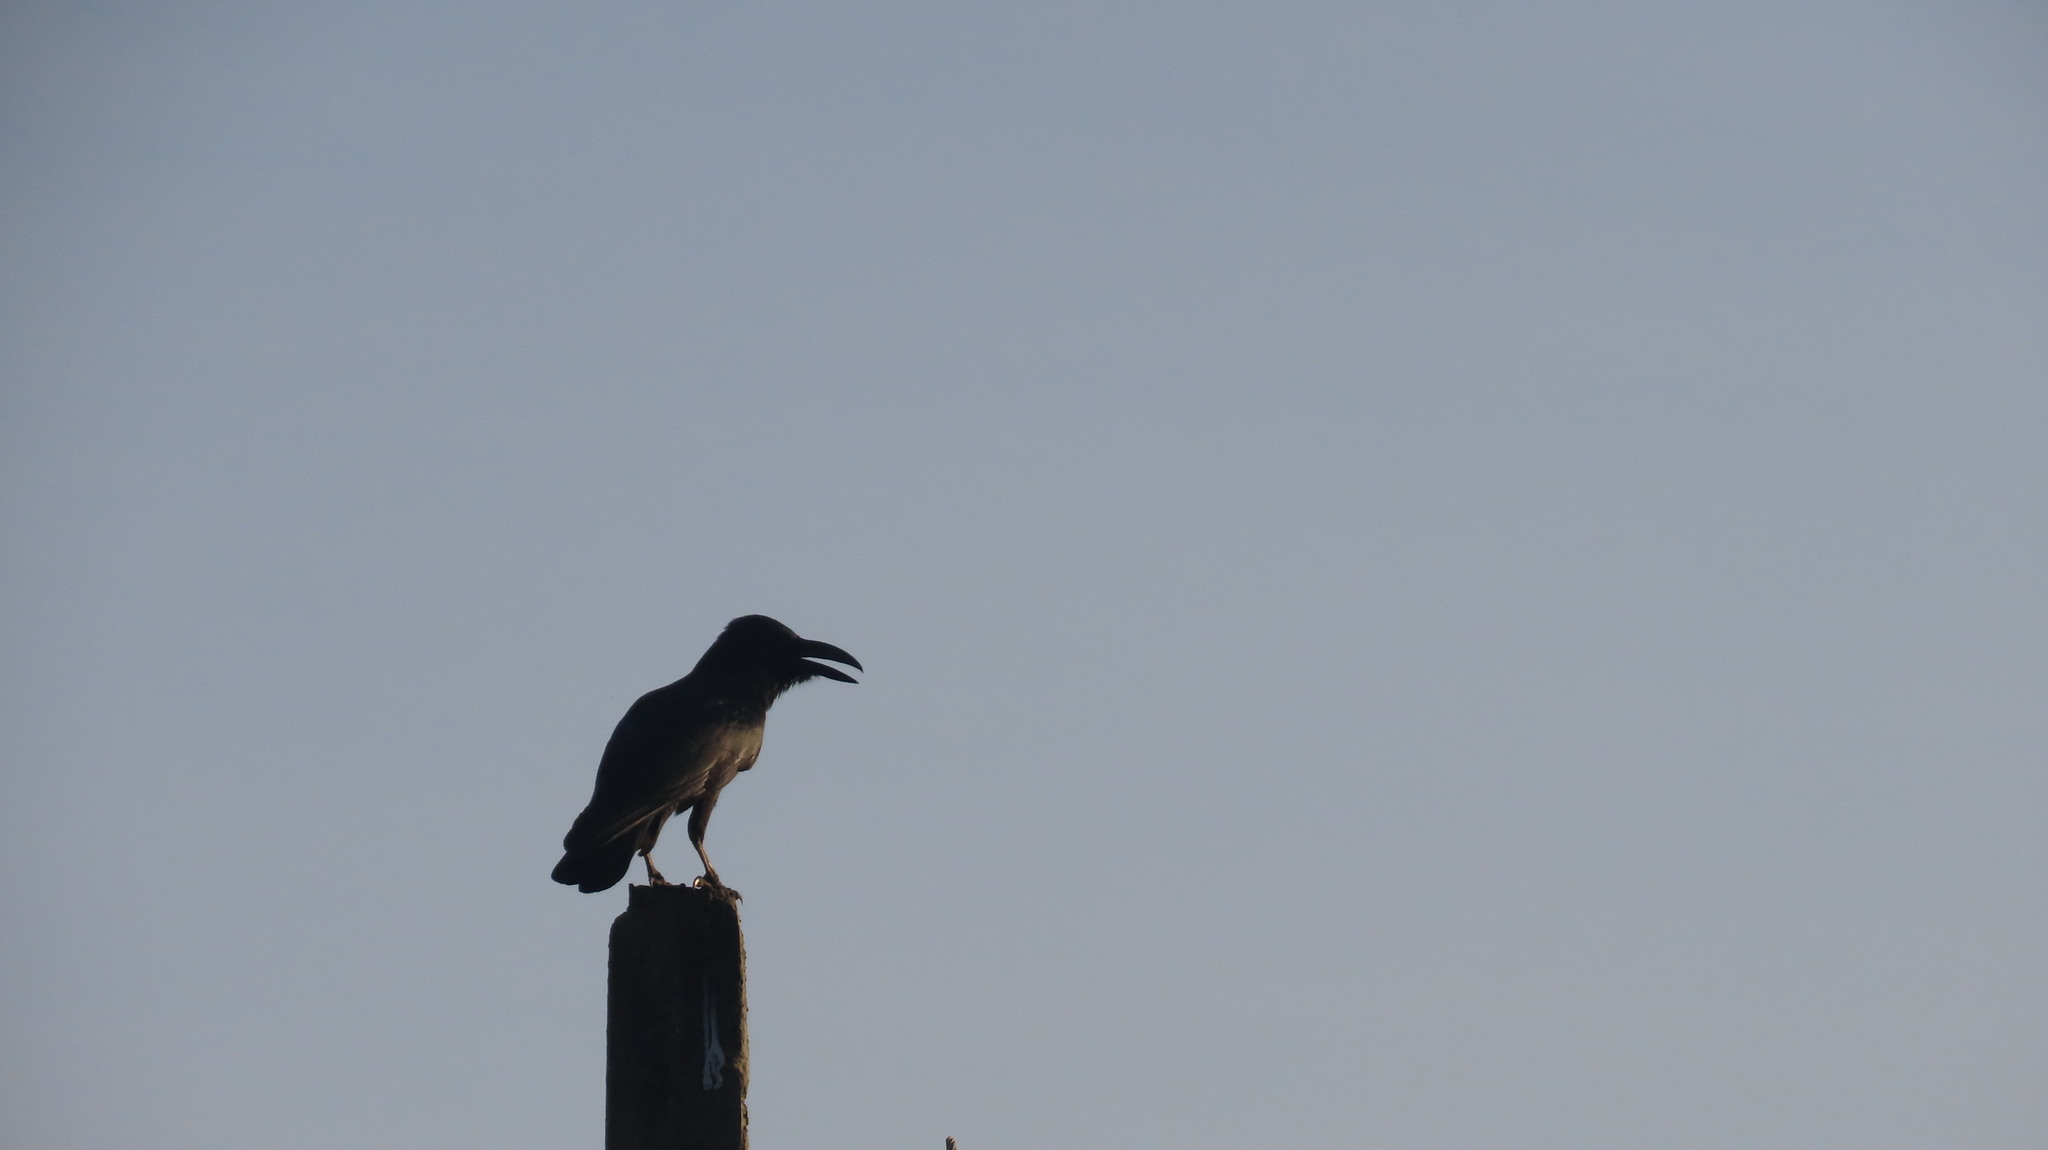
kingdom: Animalia
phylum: Chordata
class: Aves
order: Passeriformes
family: Corvidae
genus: Corvus
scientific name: Corvus macrorhynchos
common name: Large-billed crow
